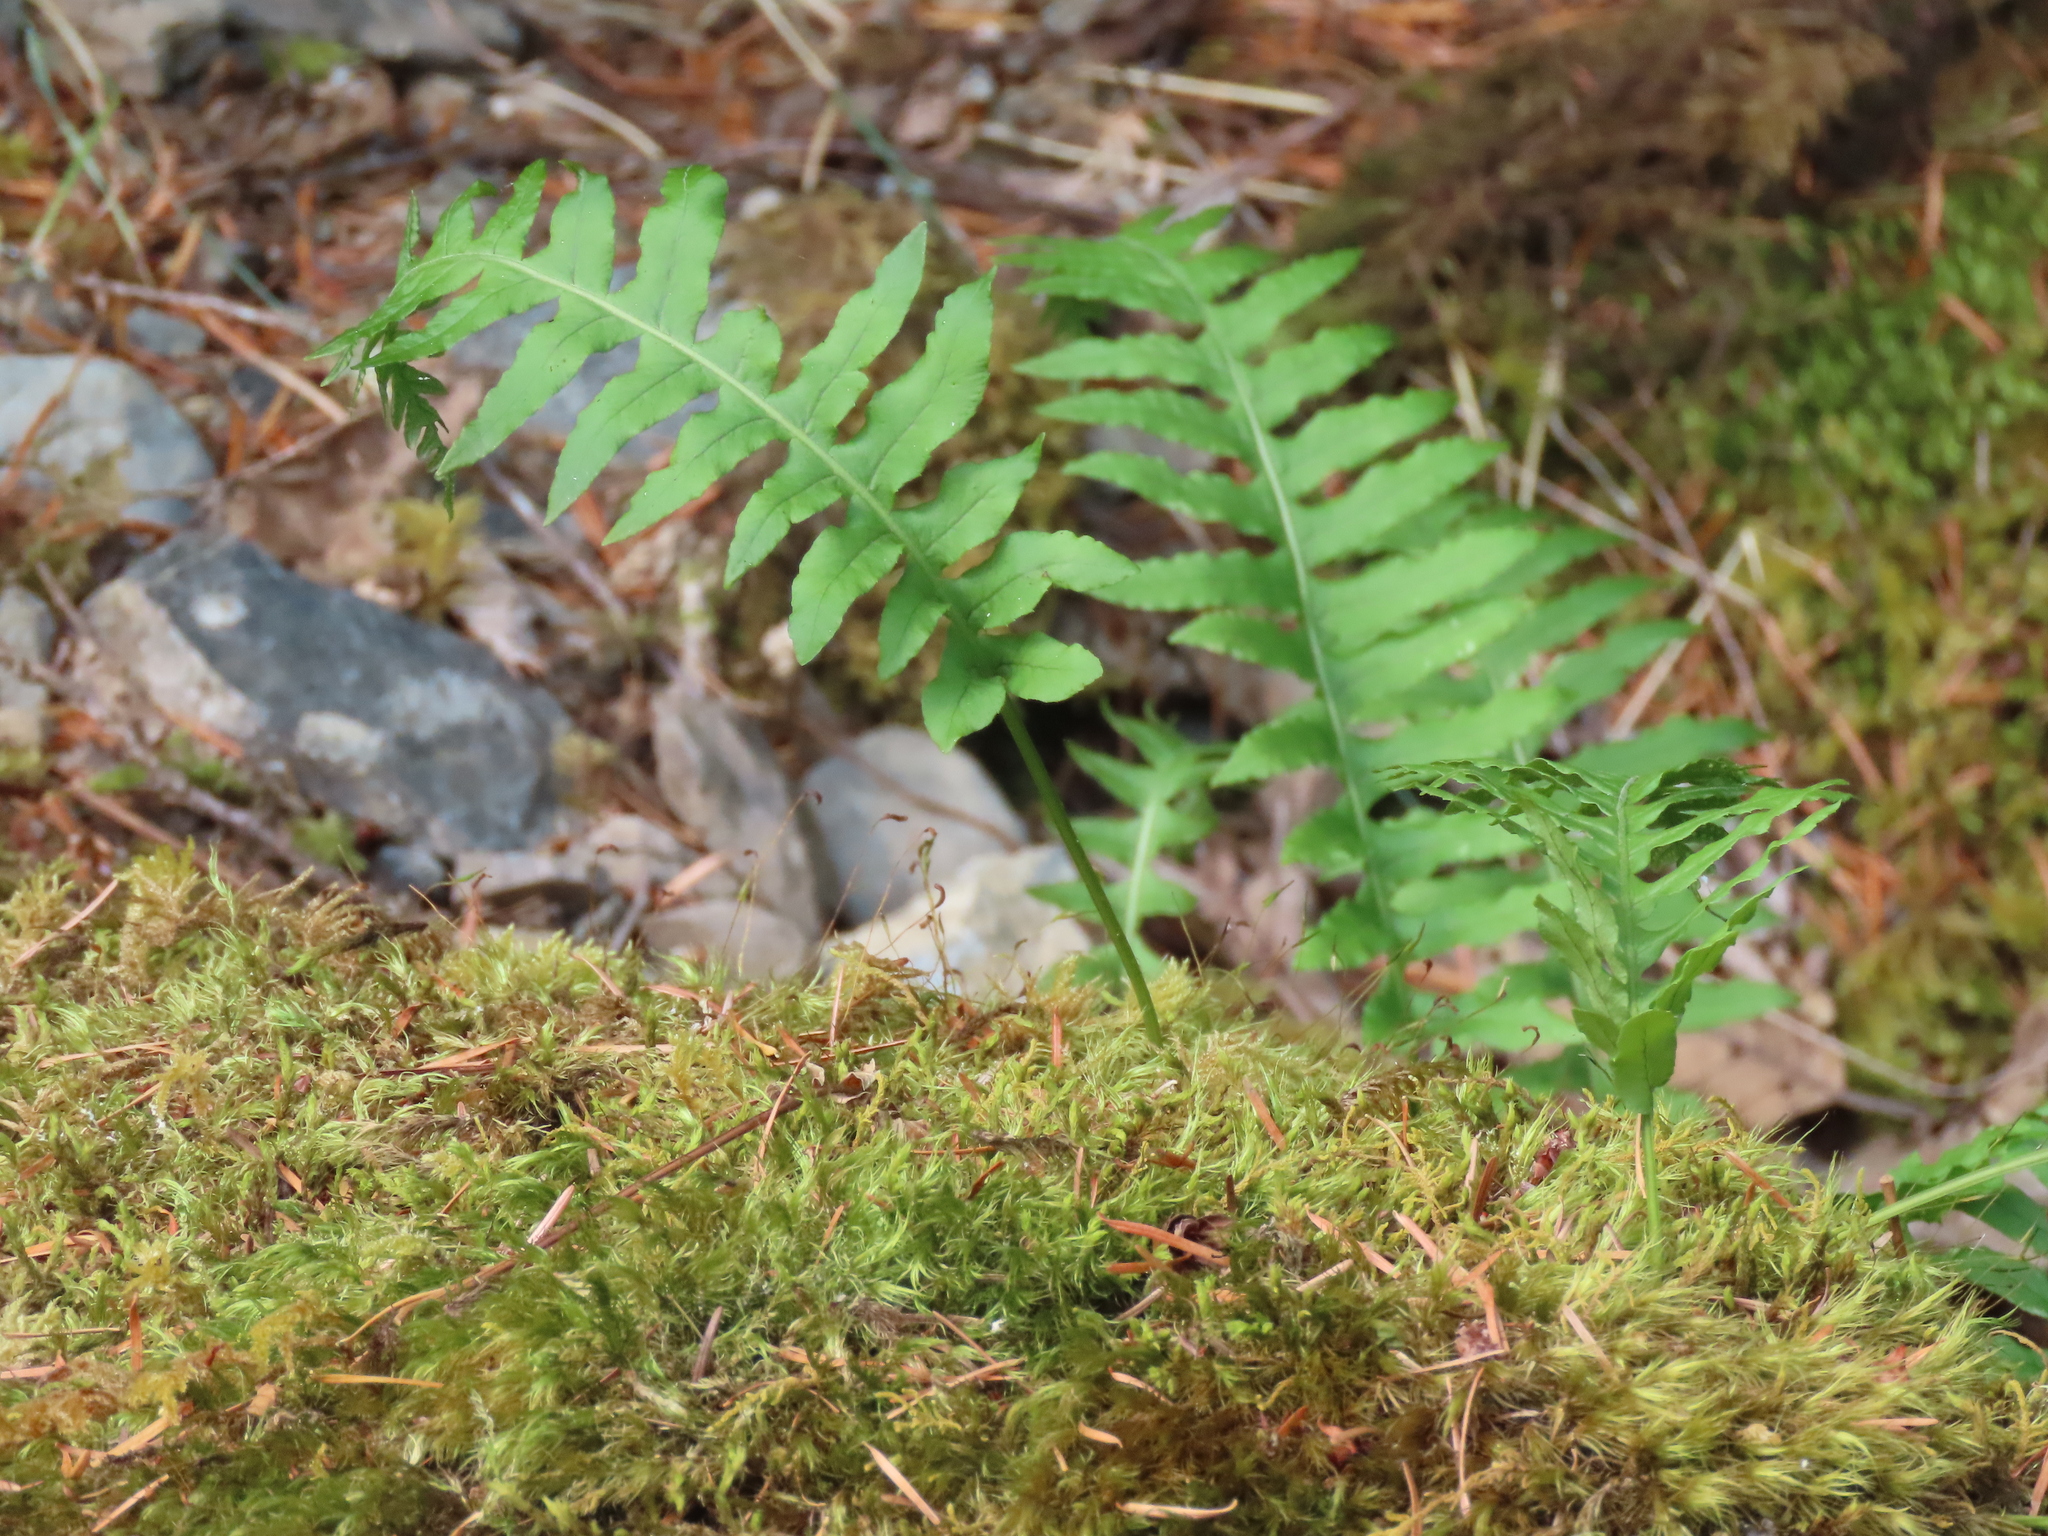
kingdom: Plantae
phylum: Tracheophyta
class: Polypodiopsida
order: Polypodiales
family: Polypodiaceae
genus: Polypodium
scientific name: Polypodium glycyrrhiza
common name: Licorice fern
